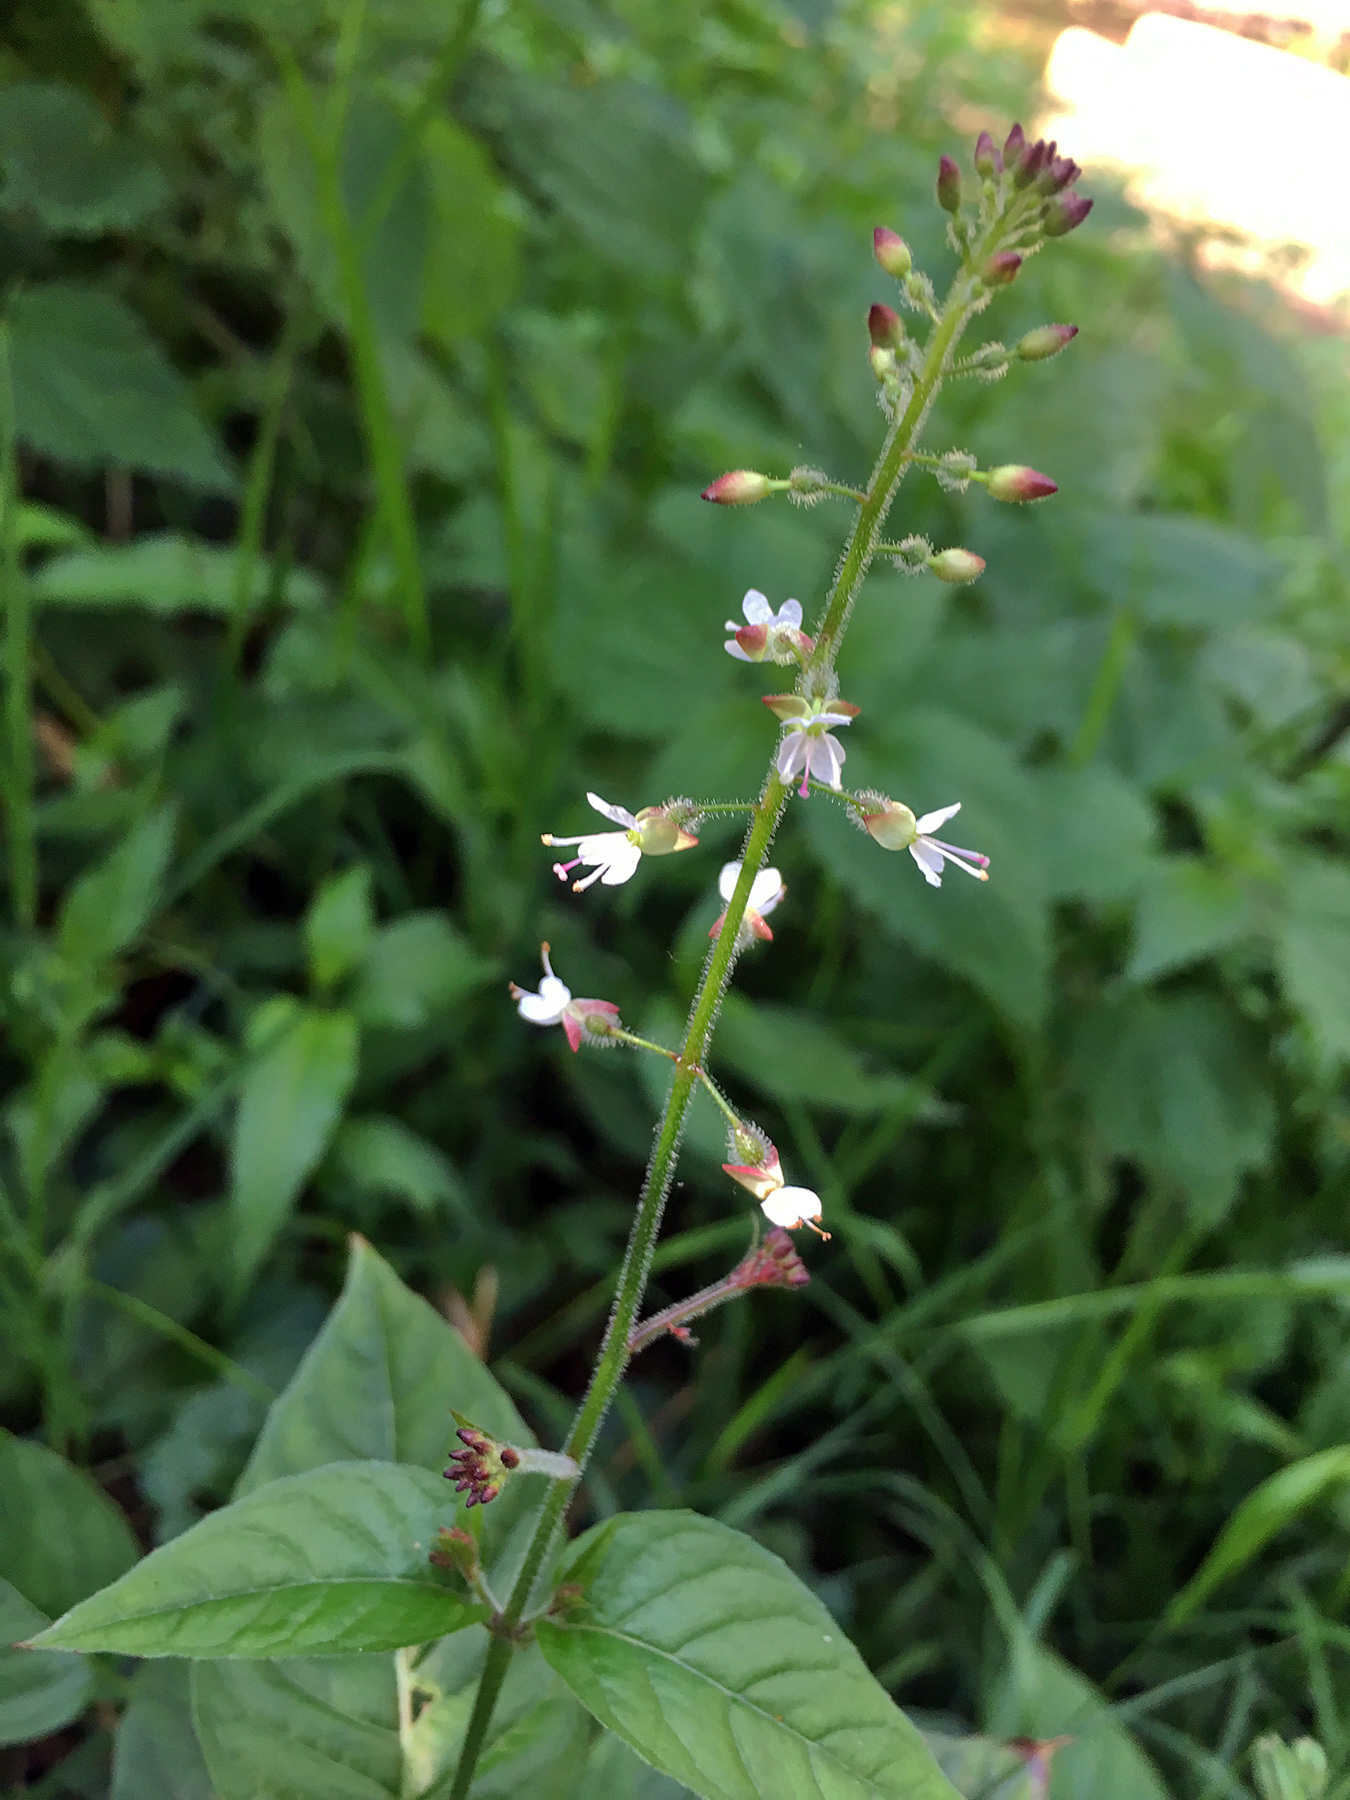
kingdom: Plantae
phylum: Tracheophyta
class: Magnoliopsida
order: Myrtales
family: Onagraceae
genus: Circaea
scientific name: Circaea lutetiana
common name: Enchanter's-nightshade
